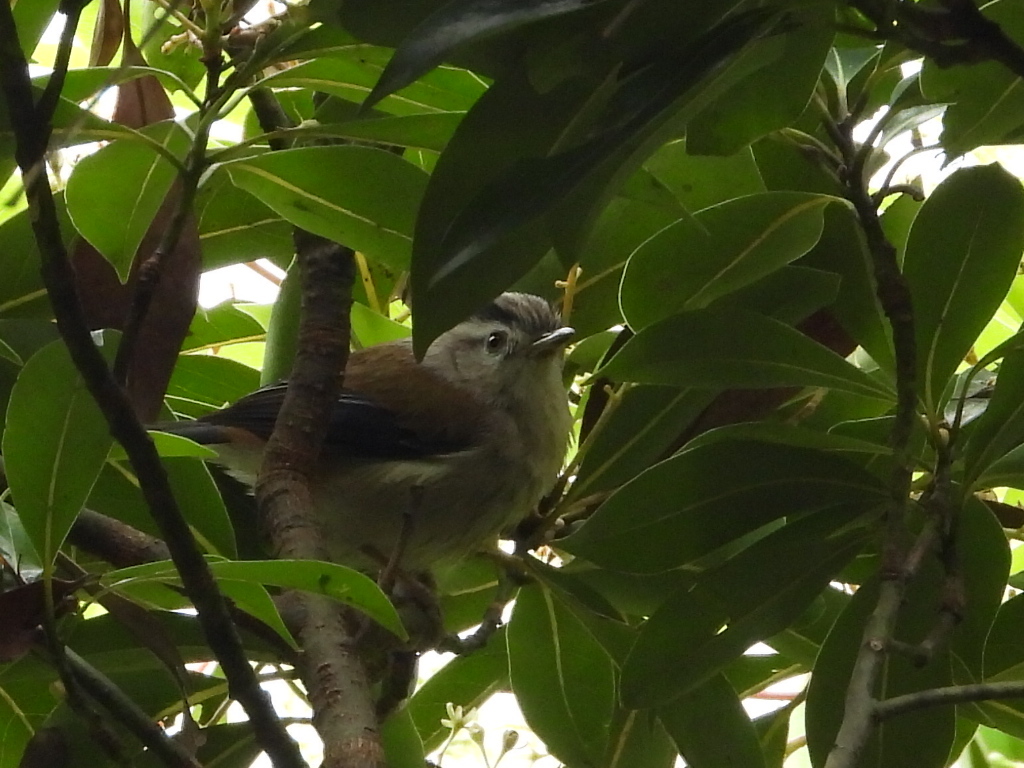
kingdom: Animalia
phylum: Chordata
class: Aves
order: Passeriformes
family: Leiothrichidae
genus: Minla
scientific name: Minla cyanouroptera
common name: Blue-winged minla
